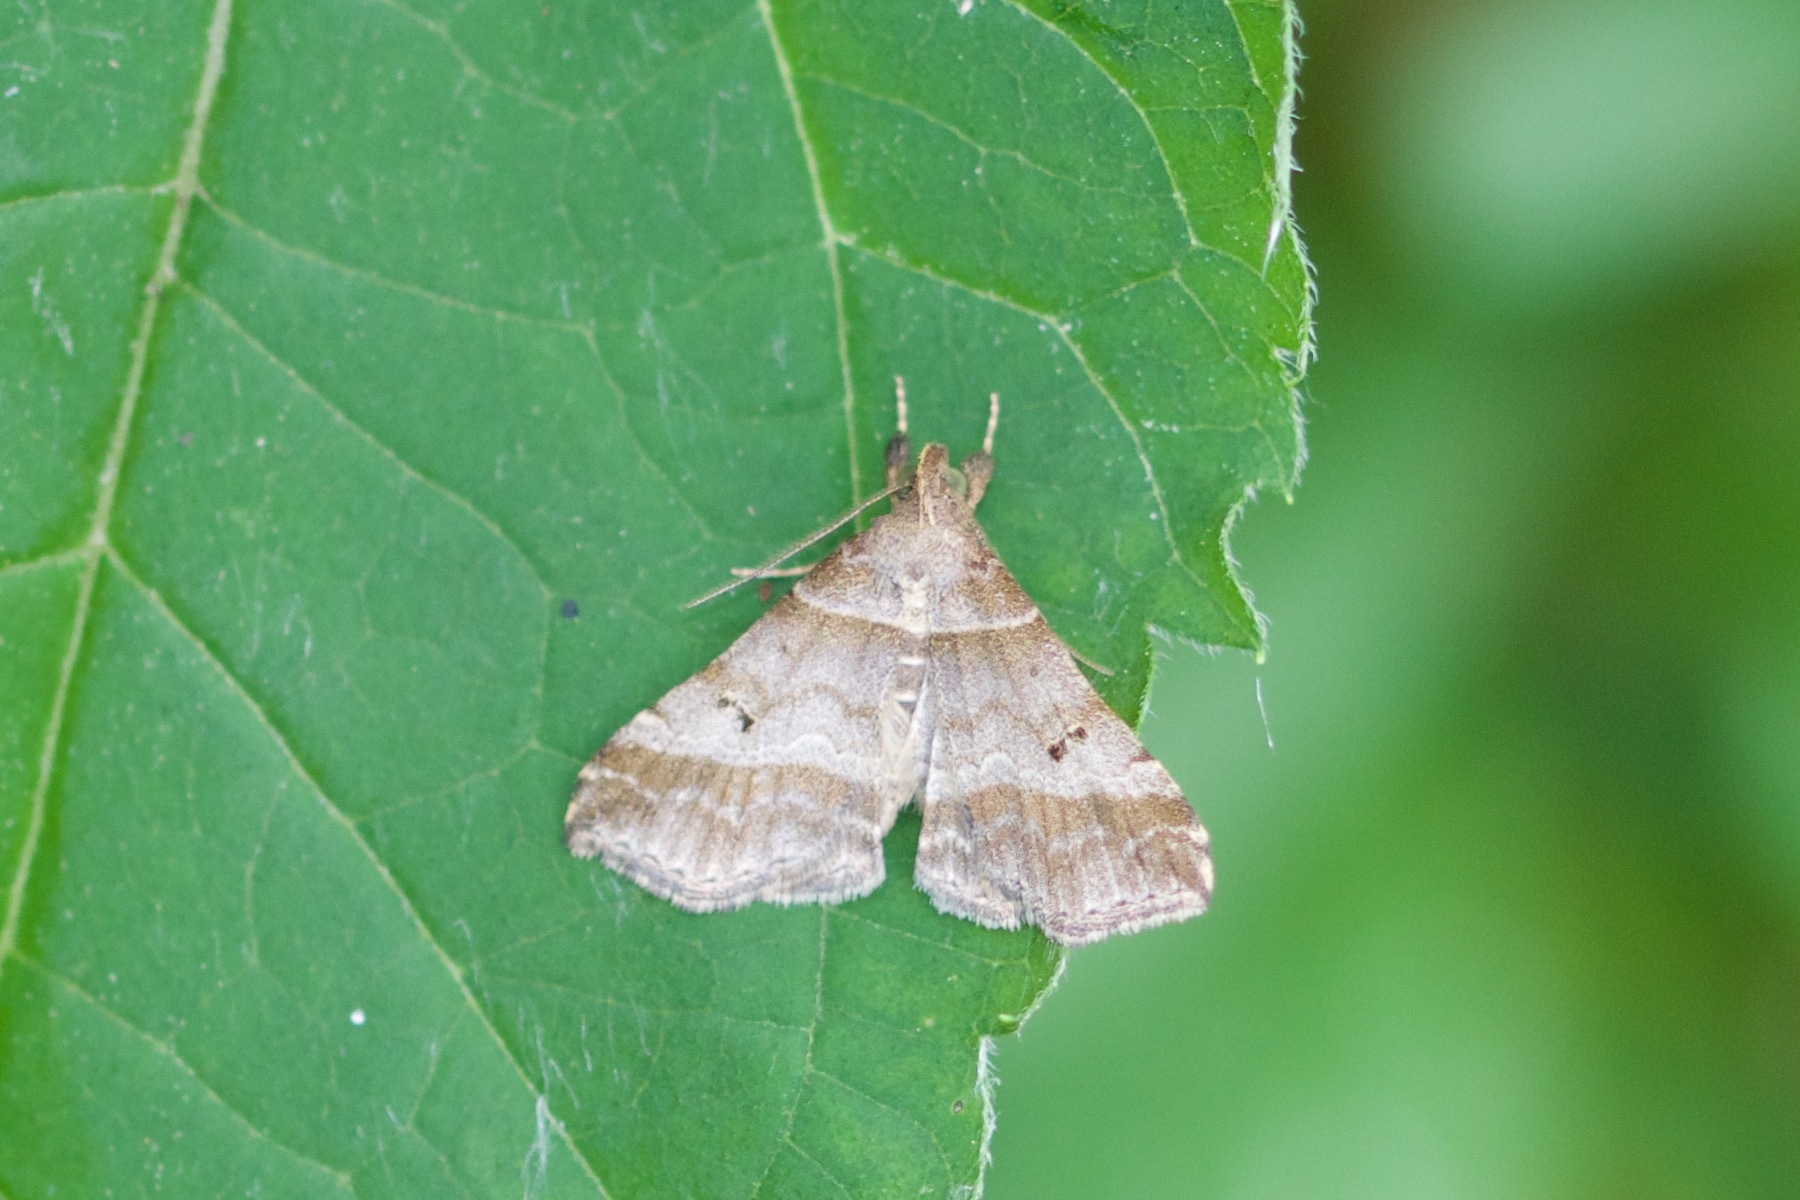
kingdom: Animalia
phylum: Arthropoda
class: Insecta
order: Lepidoptera
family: Erebidae
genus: Phaeolita
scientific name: Phaeolita pyramusalis
